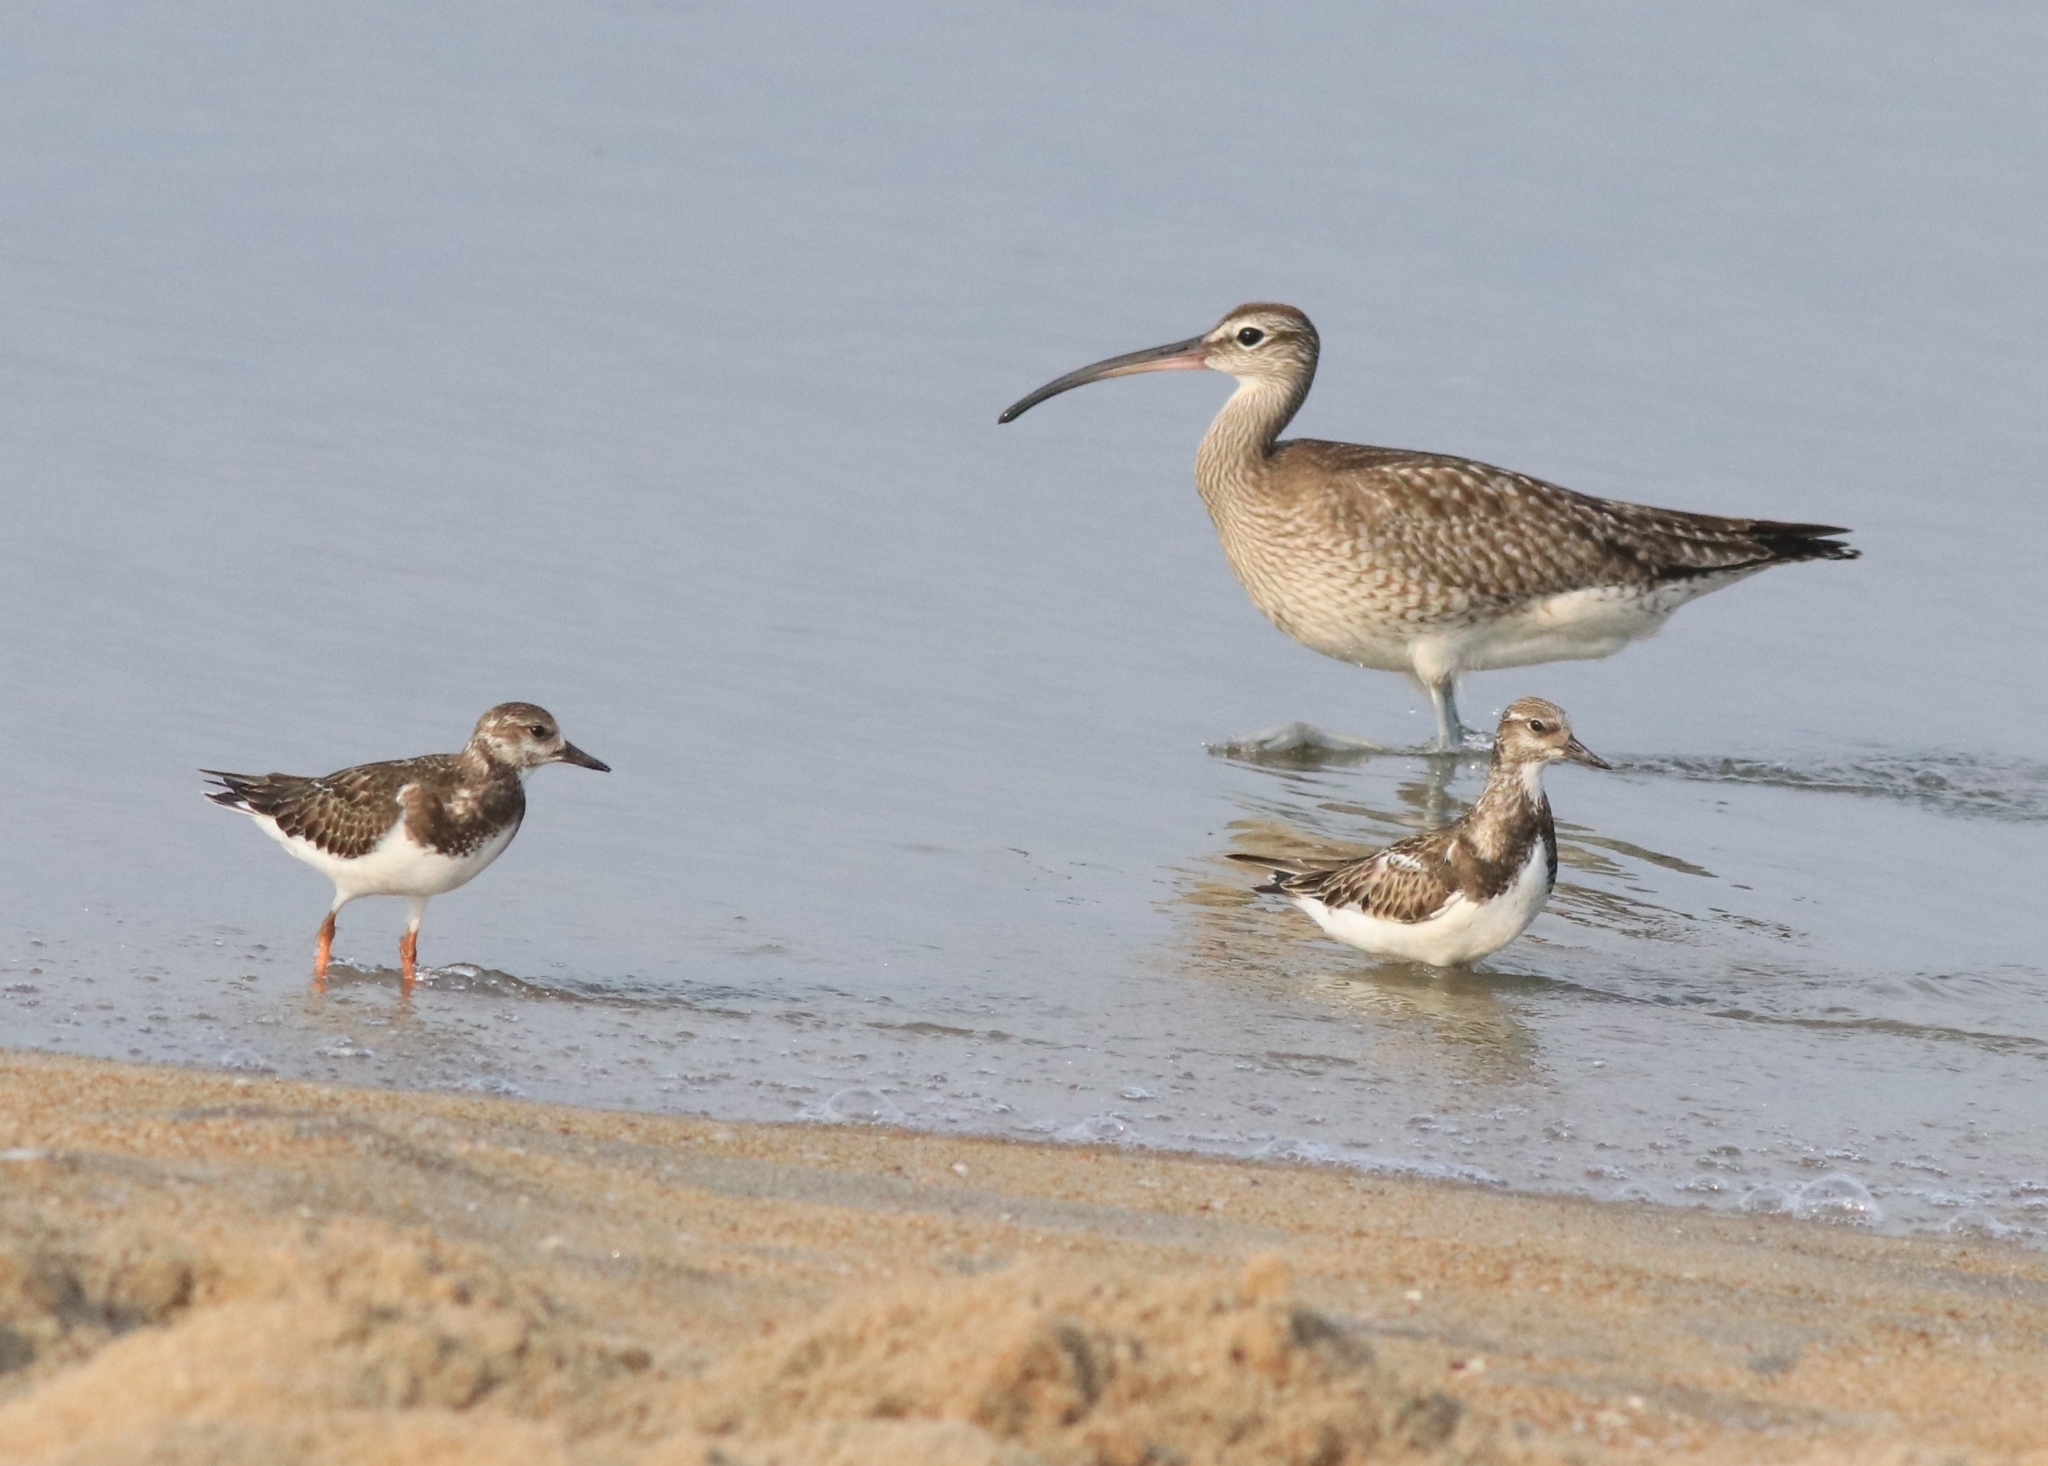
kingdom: Animalia
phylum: Chordata
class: Aves
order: Charadriiformes
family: Scolopacidae
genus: Numenius
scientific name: Numenius phaeopus
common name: Whimbrel
